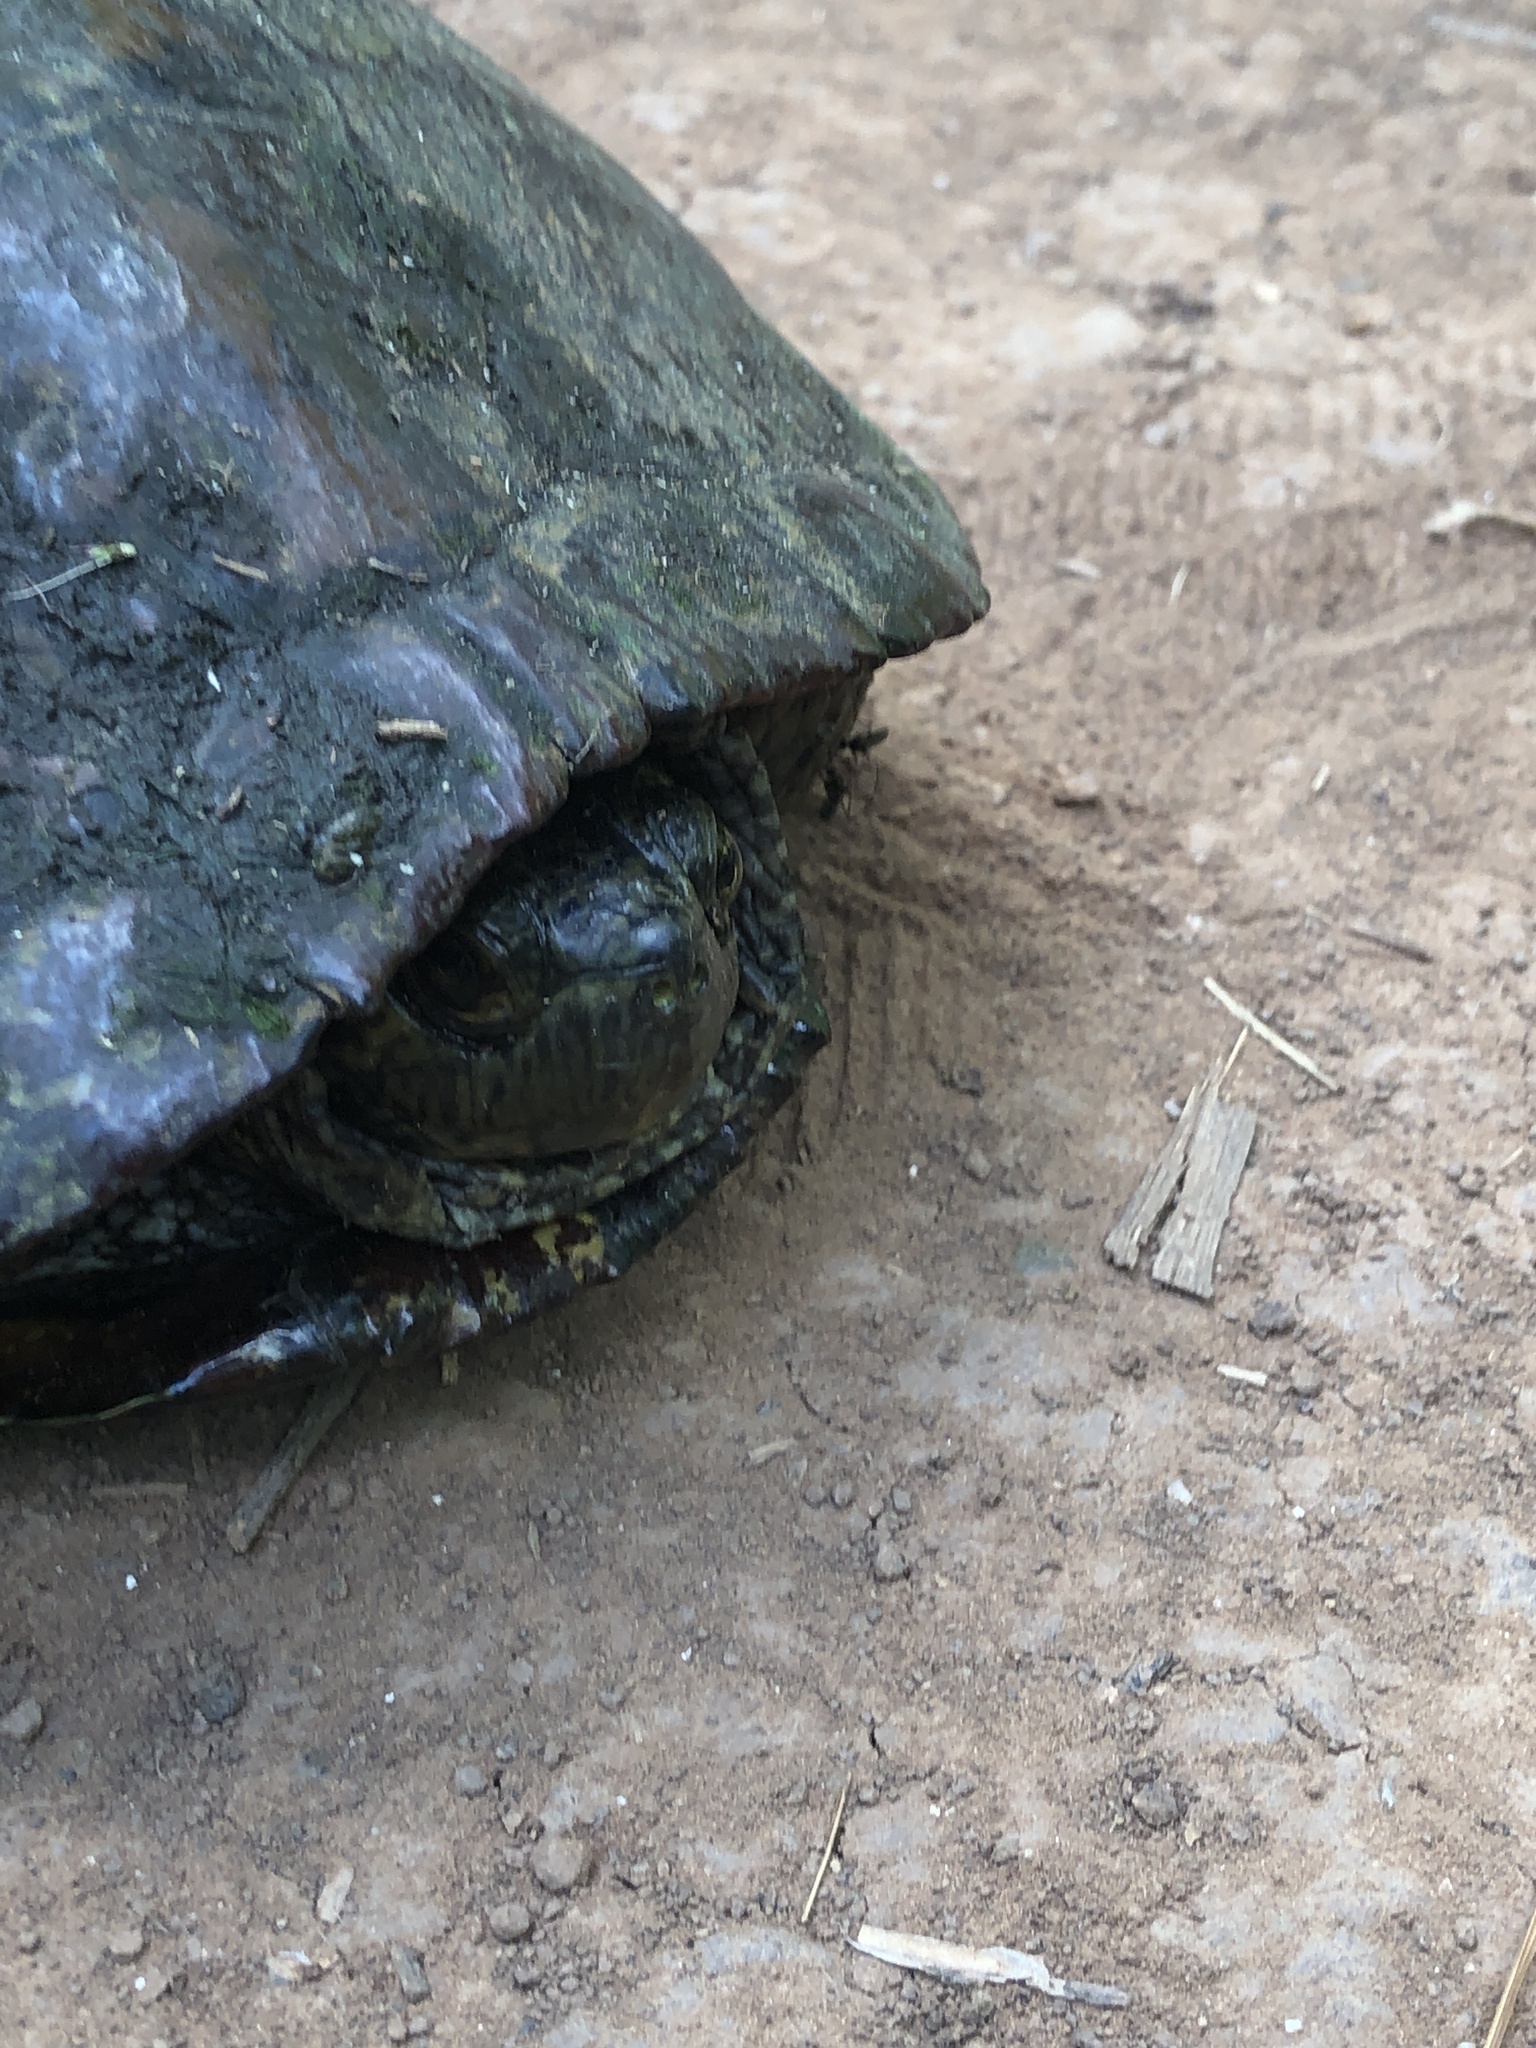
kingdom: Animalia
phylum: Chordata
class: Testudines
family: Emydidae
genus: Trachemys
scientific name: Trachemys scripta
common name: Slider
